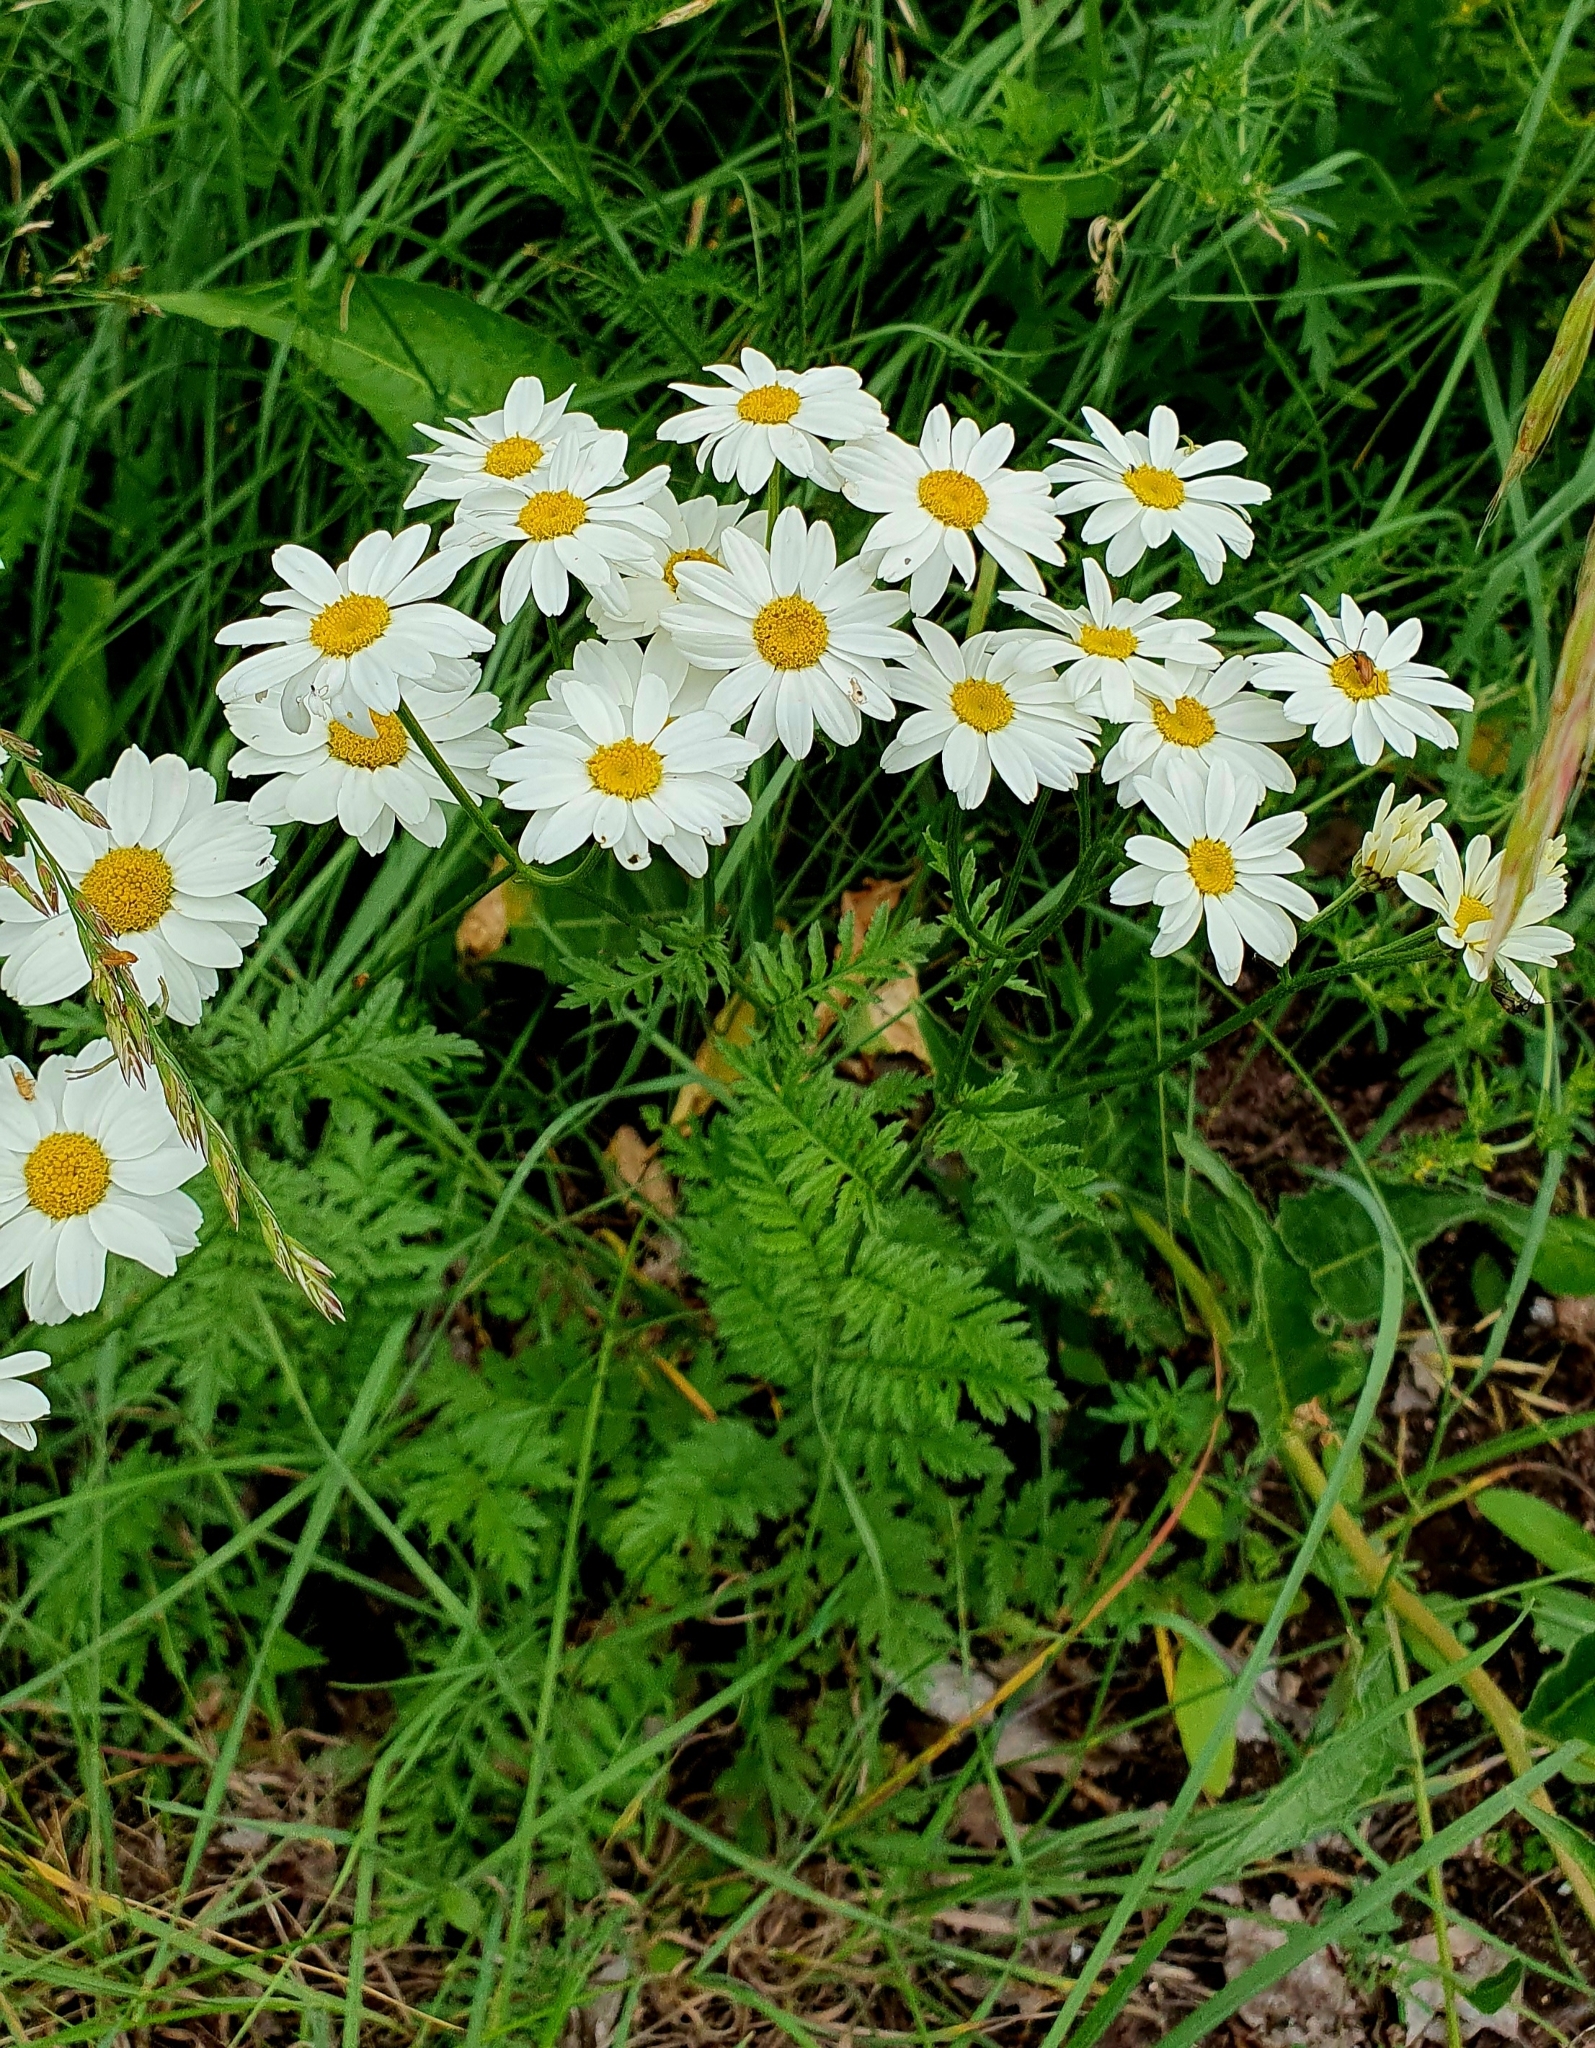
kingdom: Plantae
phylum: Tracheophyta
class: Magnoliopsida
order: Asterales
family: Asteraceae
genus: Tanacetum
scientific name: Tanacetum corymbosum
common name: Scentless feverfew
